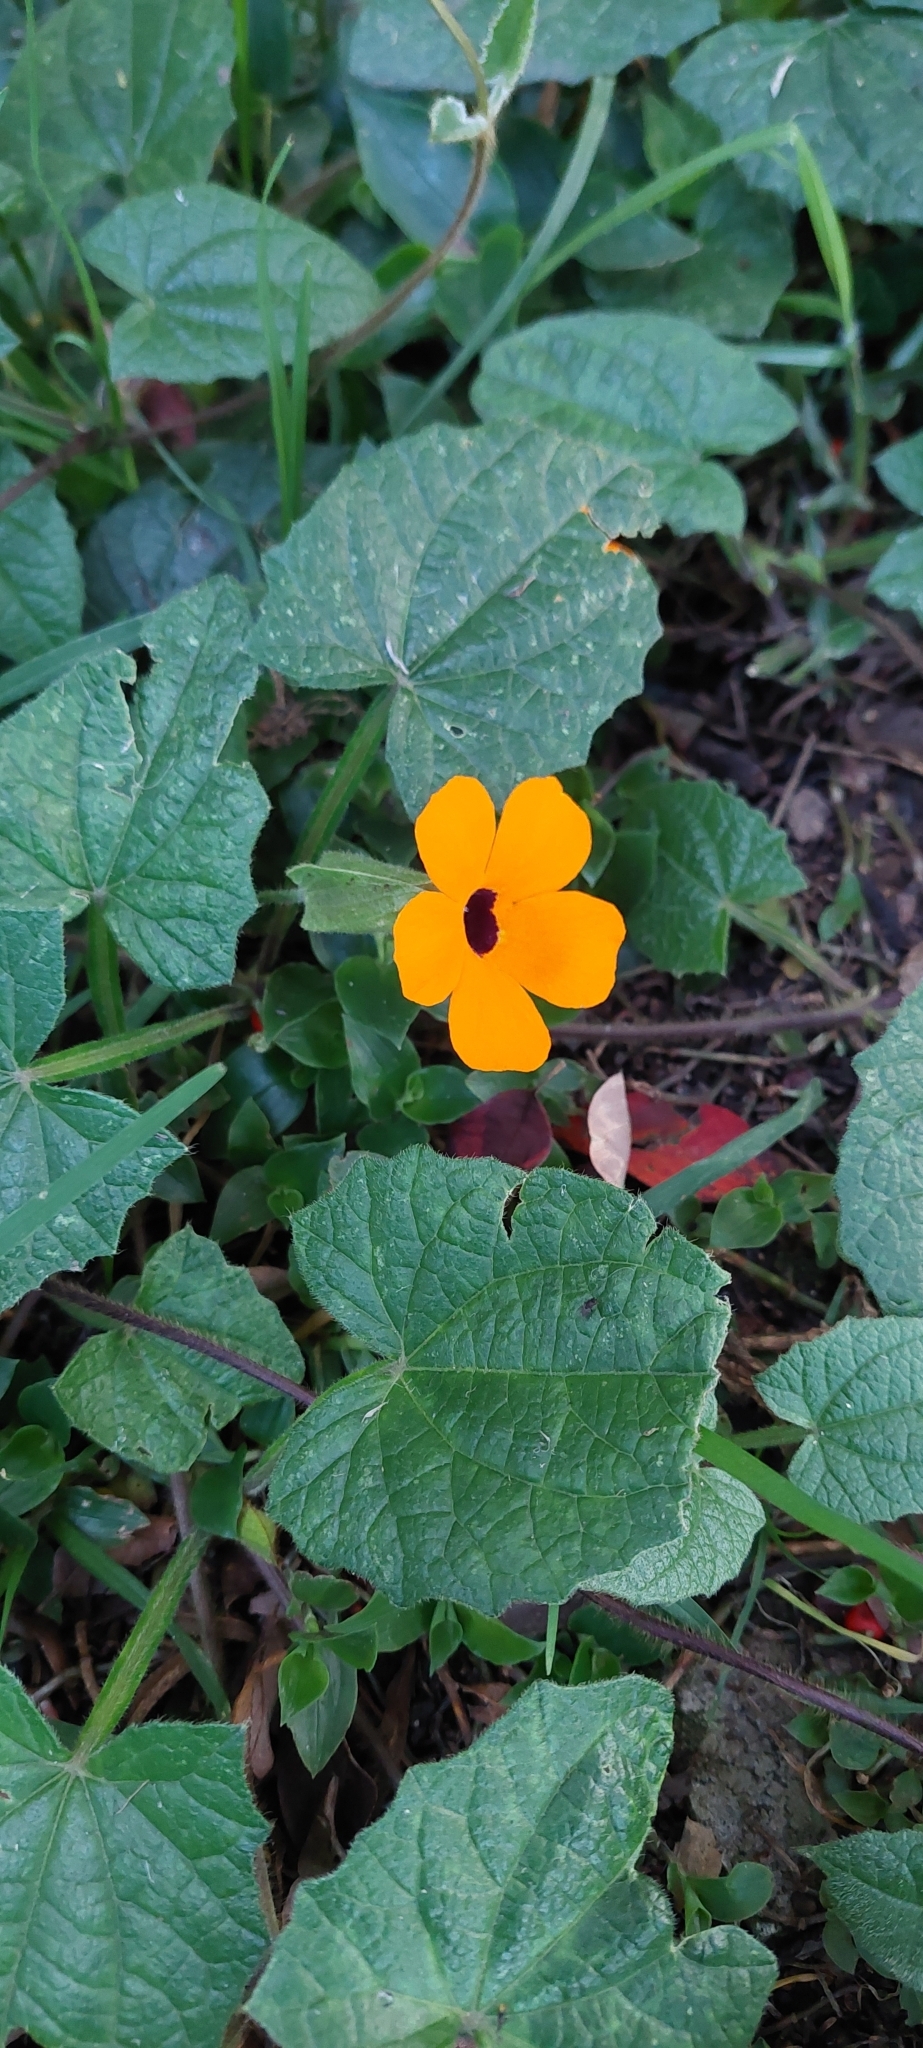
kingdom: Plantae
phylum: Tracheophyta
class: Magnoliopsida
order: Lamiales
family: Acanthaceae
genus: Thunbergia
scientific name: Thunbergia alata
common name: Blackeyed susan vine
